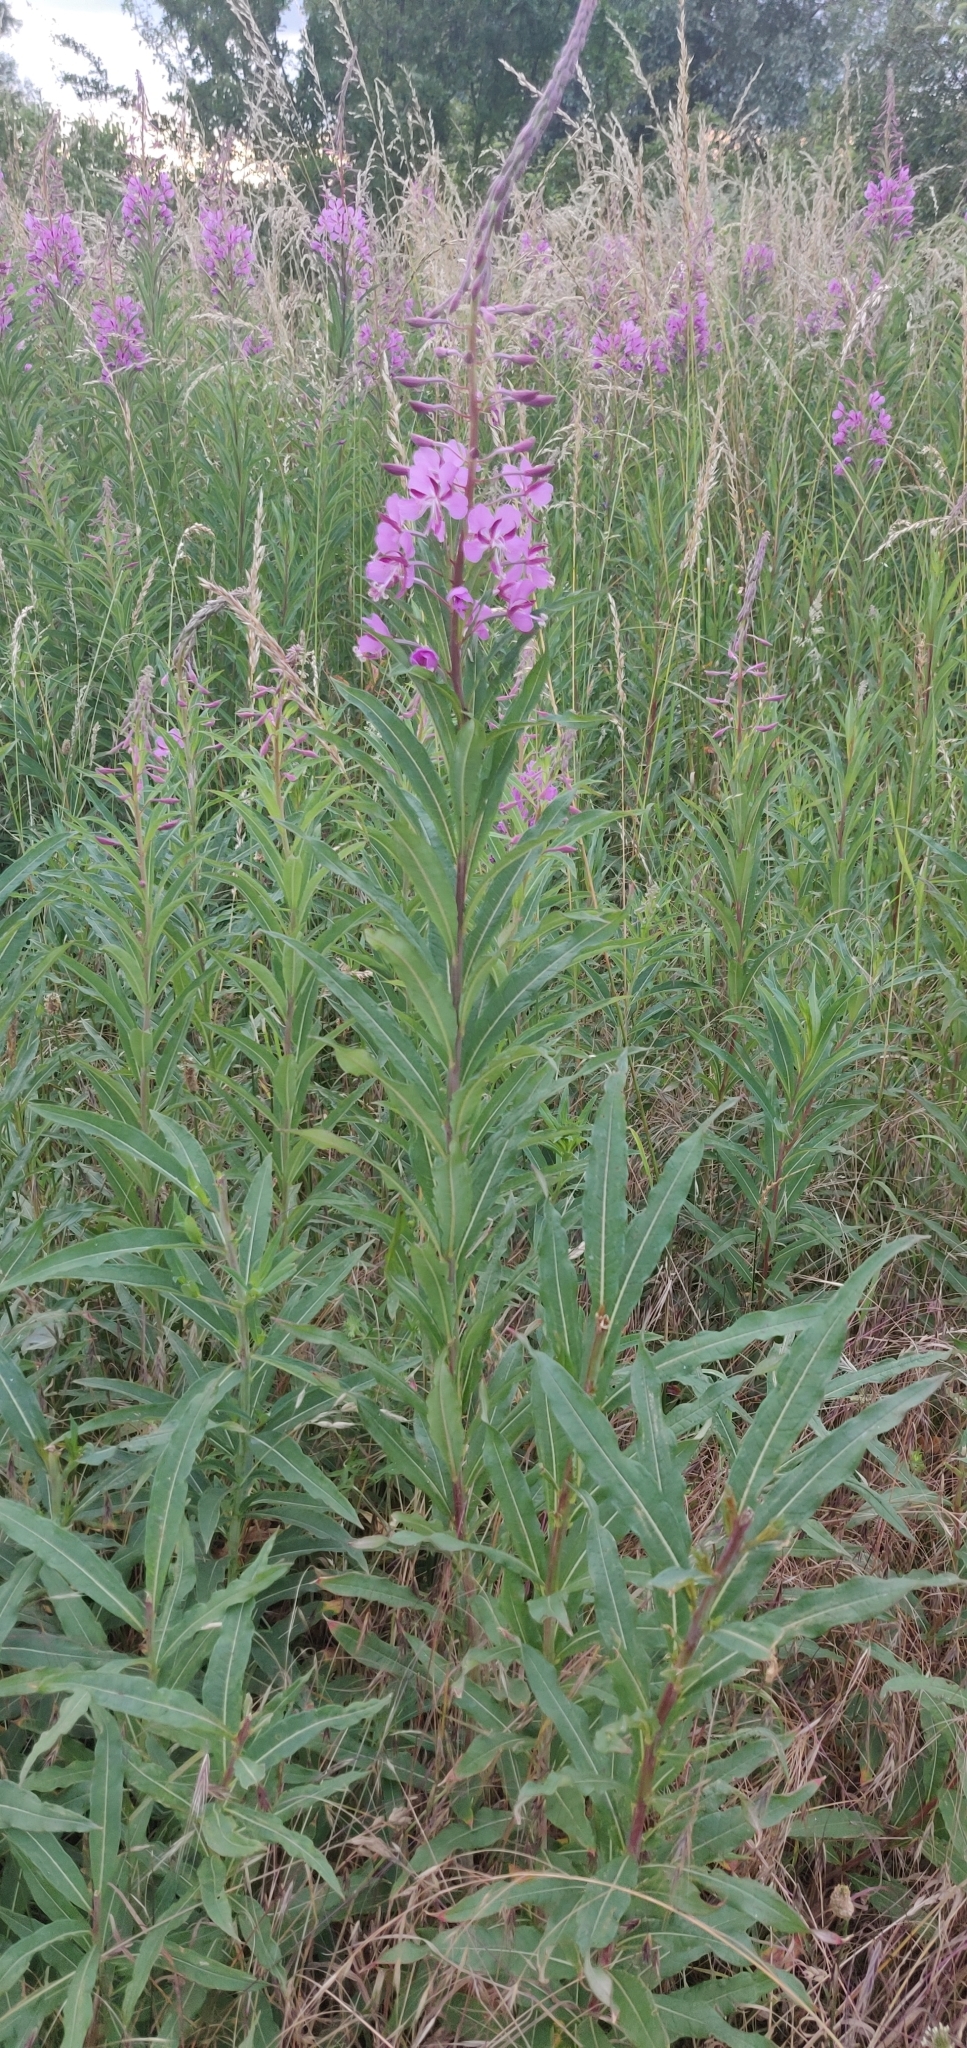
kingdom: Plantae
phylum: Tracheophyta
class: Magnoliopsida
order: Myrtales
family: Onagraceae
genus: Chamaenerion
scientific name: Chamaenerion angustifolium
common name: Fireweed
